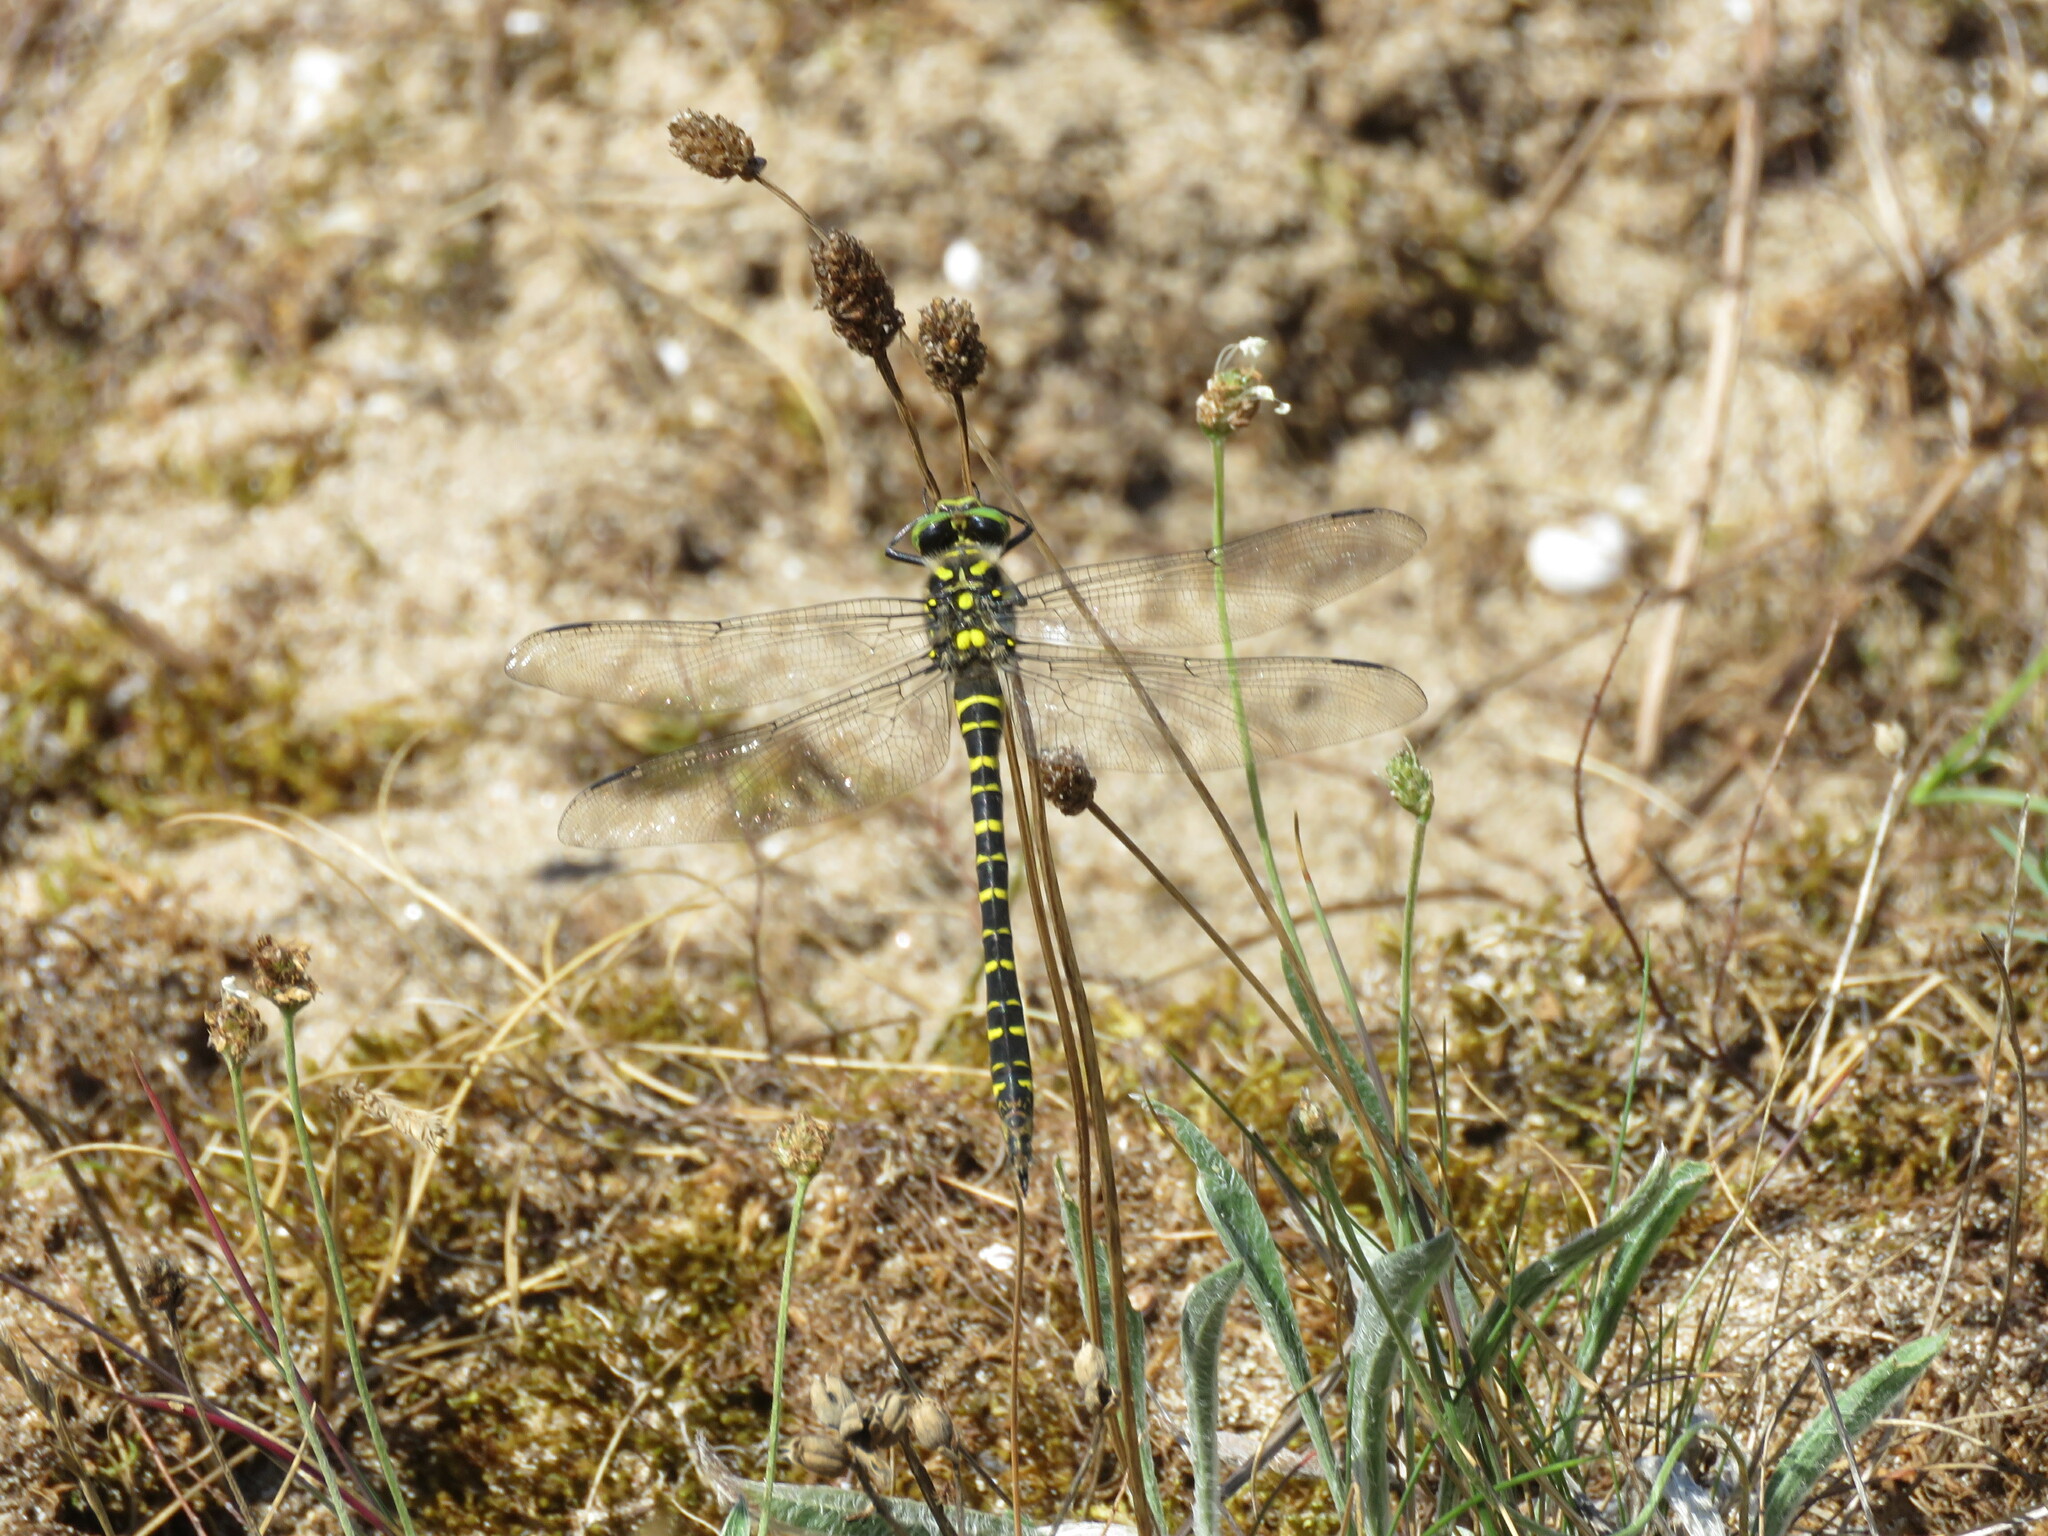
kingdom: Animalia
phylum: Arthropoda
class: Insecta
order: Odonata
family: Cordulegastridae
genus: Cordulegaster
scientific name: Cordulegaster boltonii
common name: Golden-ringed dragonfly
